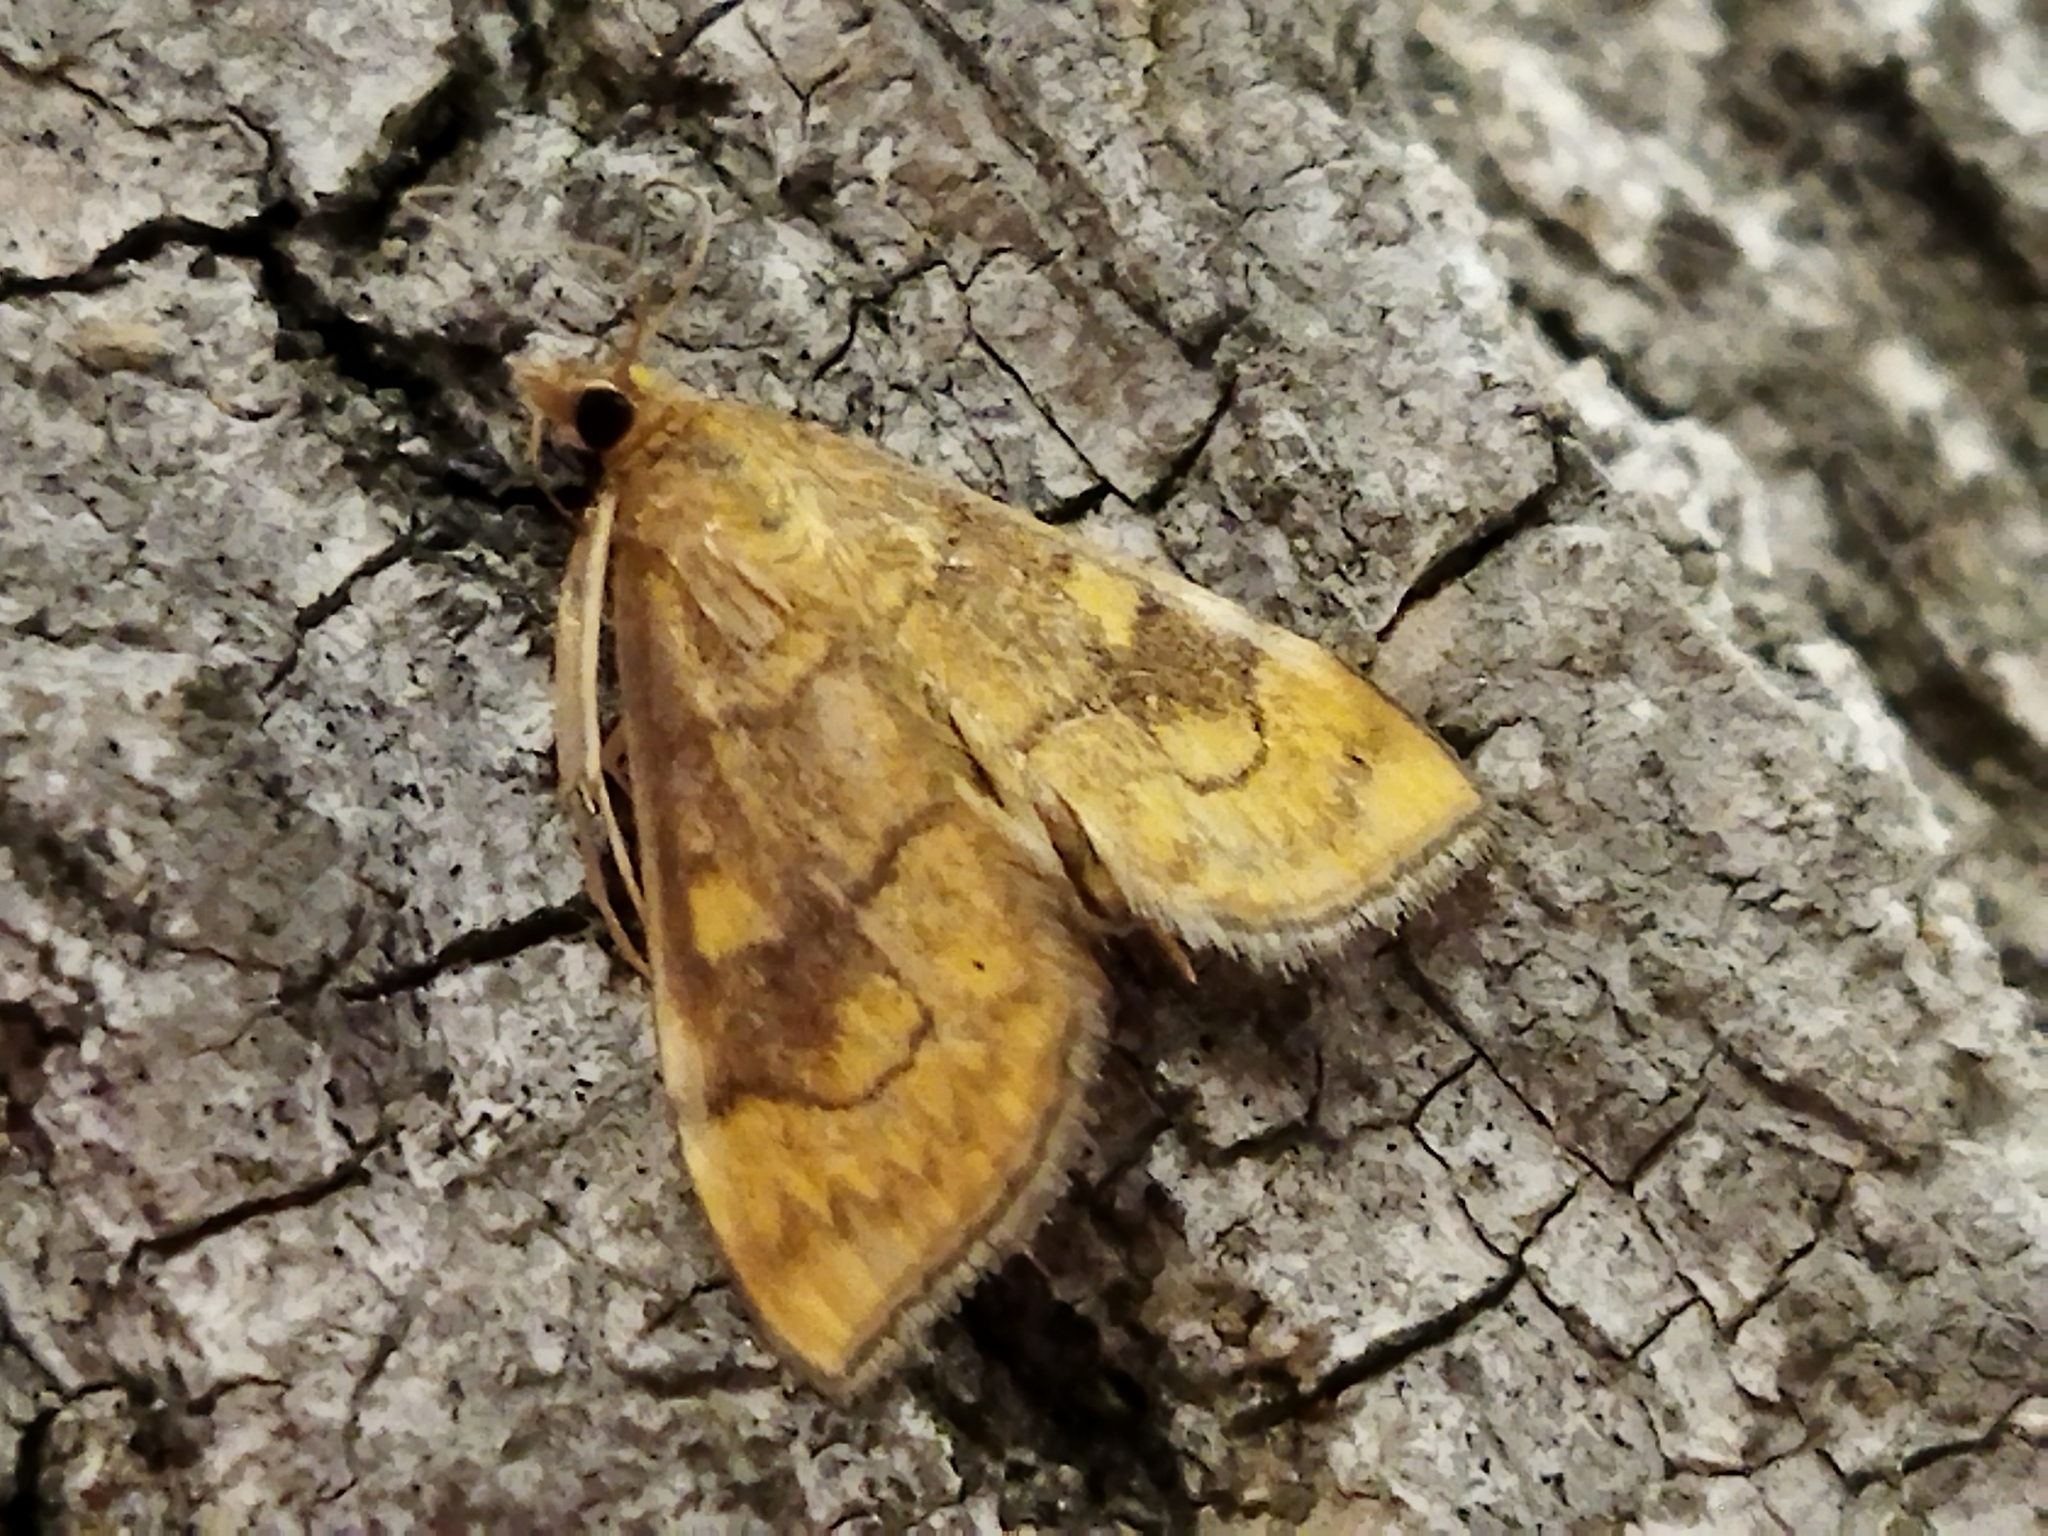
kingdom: Animalia
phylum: Arthropoda
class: Insecta
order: Lepidoptera
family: Crambidae
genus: Anania
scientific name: Anania verbascalis
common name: Golden pearl
